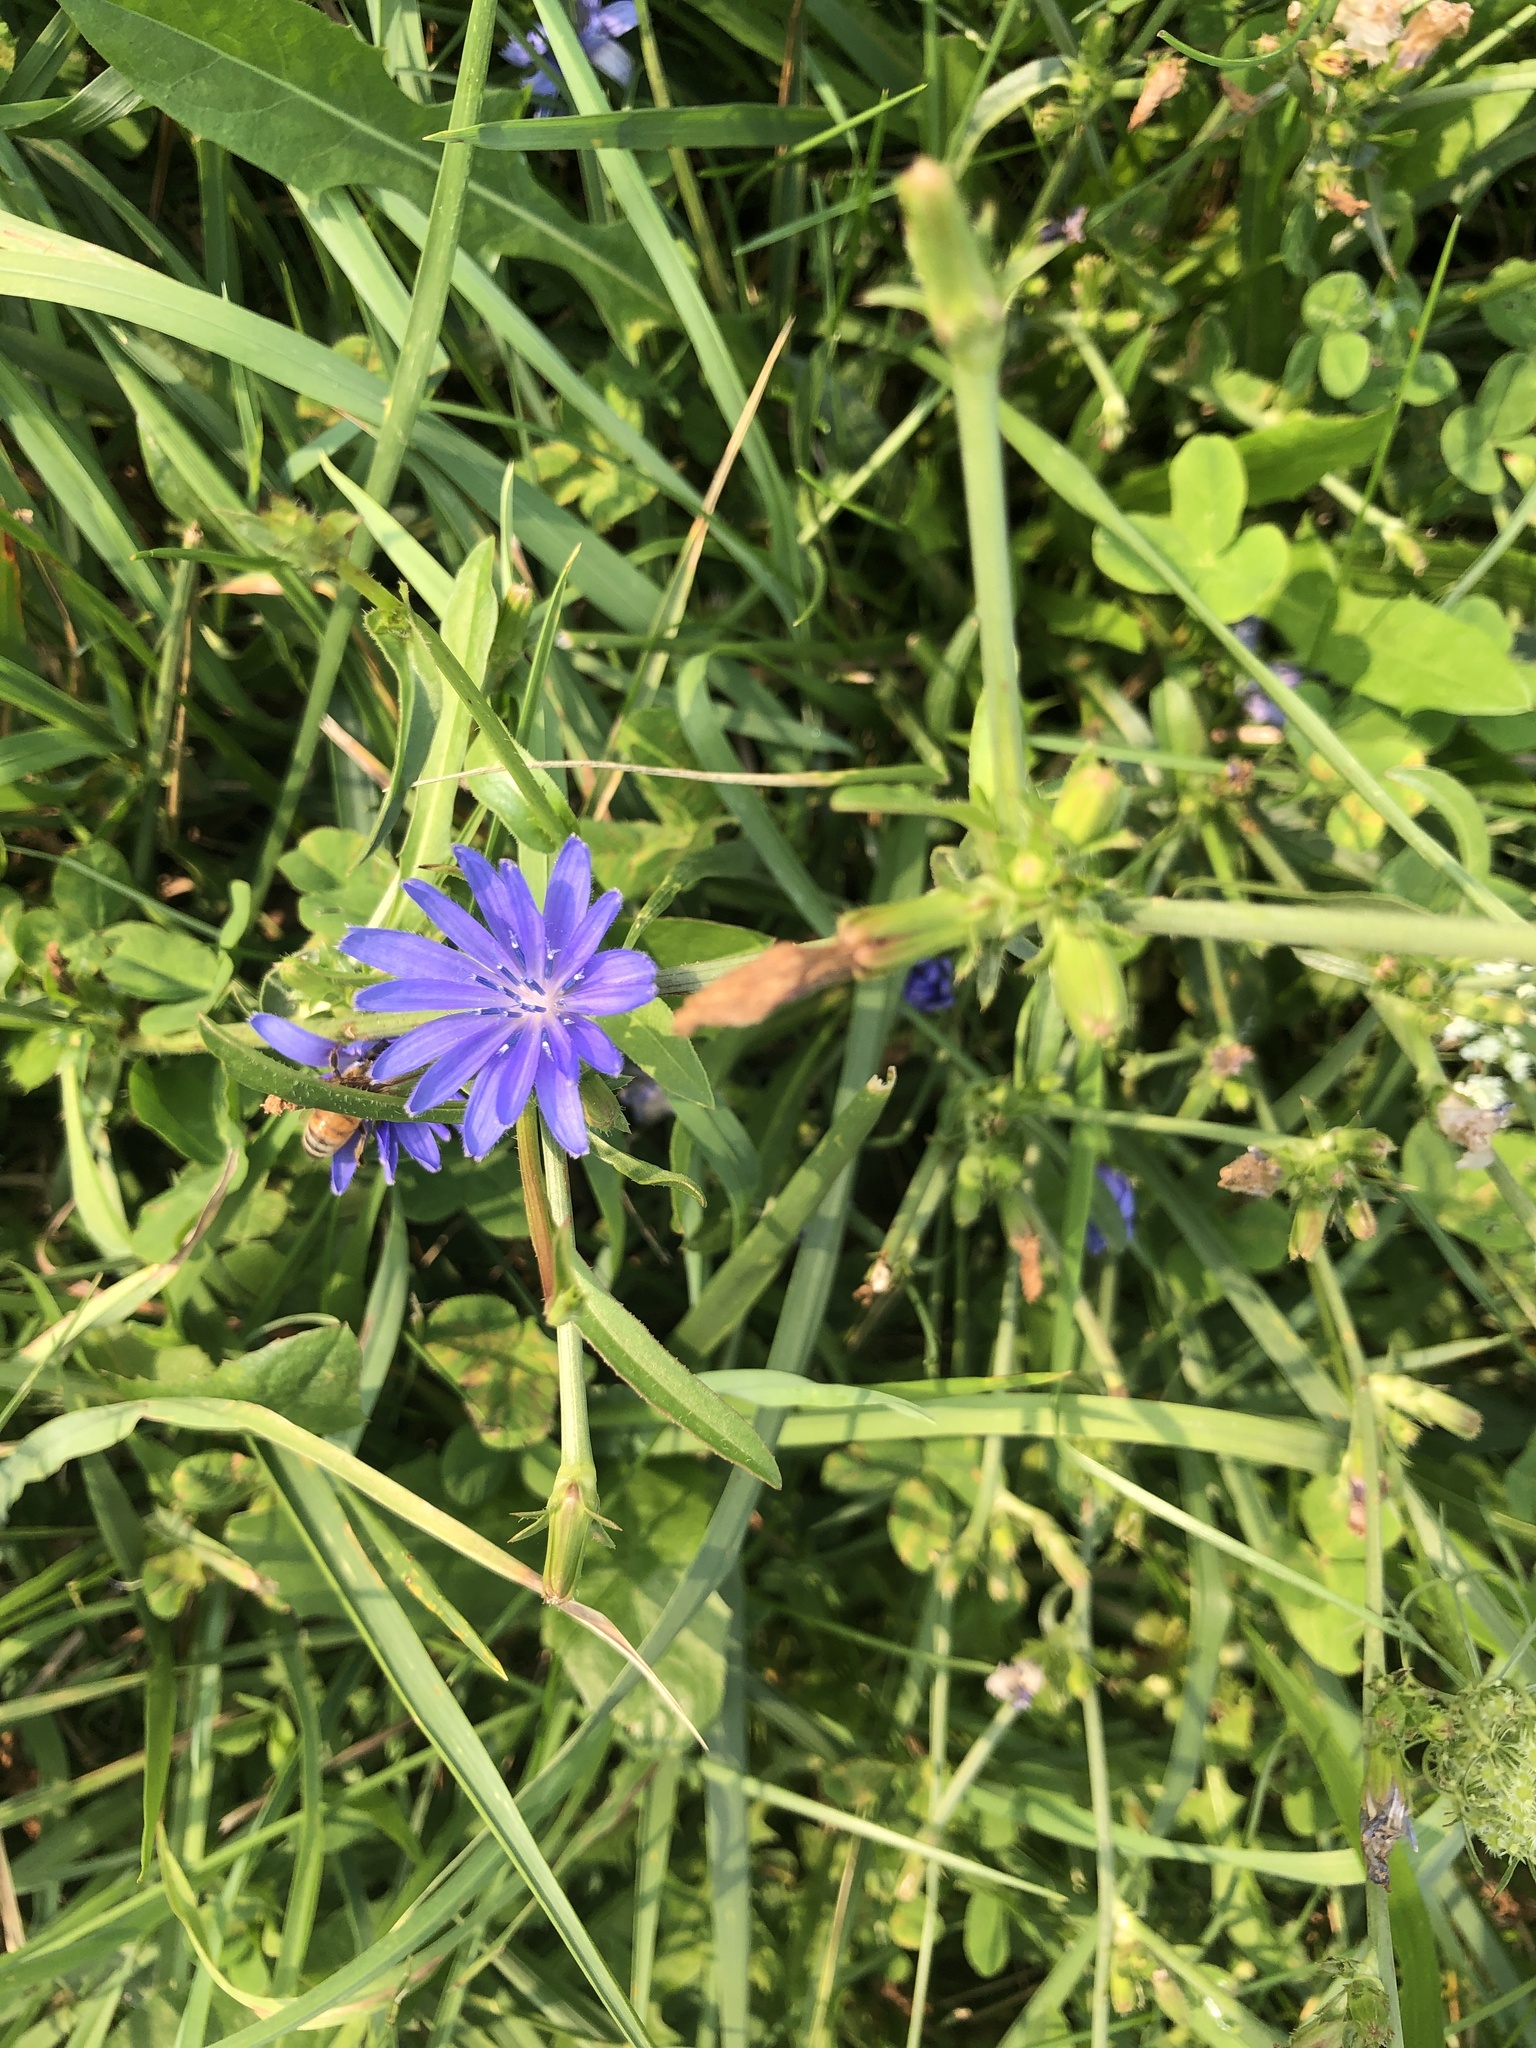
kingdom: Plantae
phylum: Tracheophyta
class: Magnoliopsida
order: Asterales
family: Asteraceae
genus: Cichorium
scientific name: Cichorium intybus
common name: Chicory
